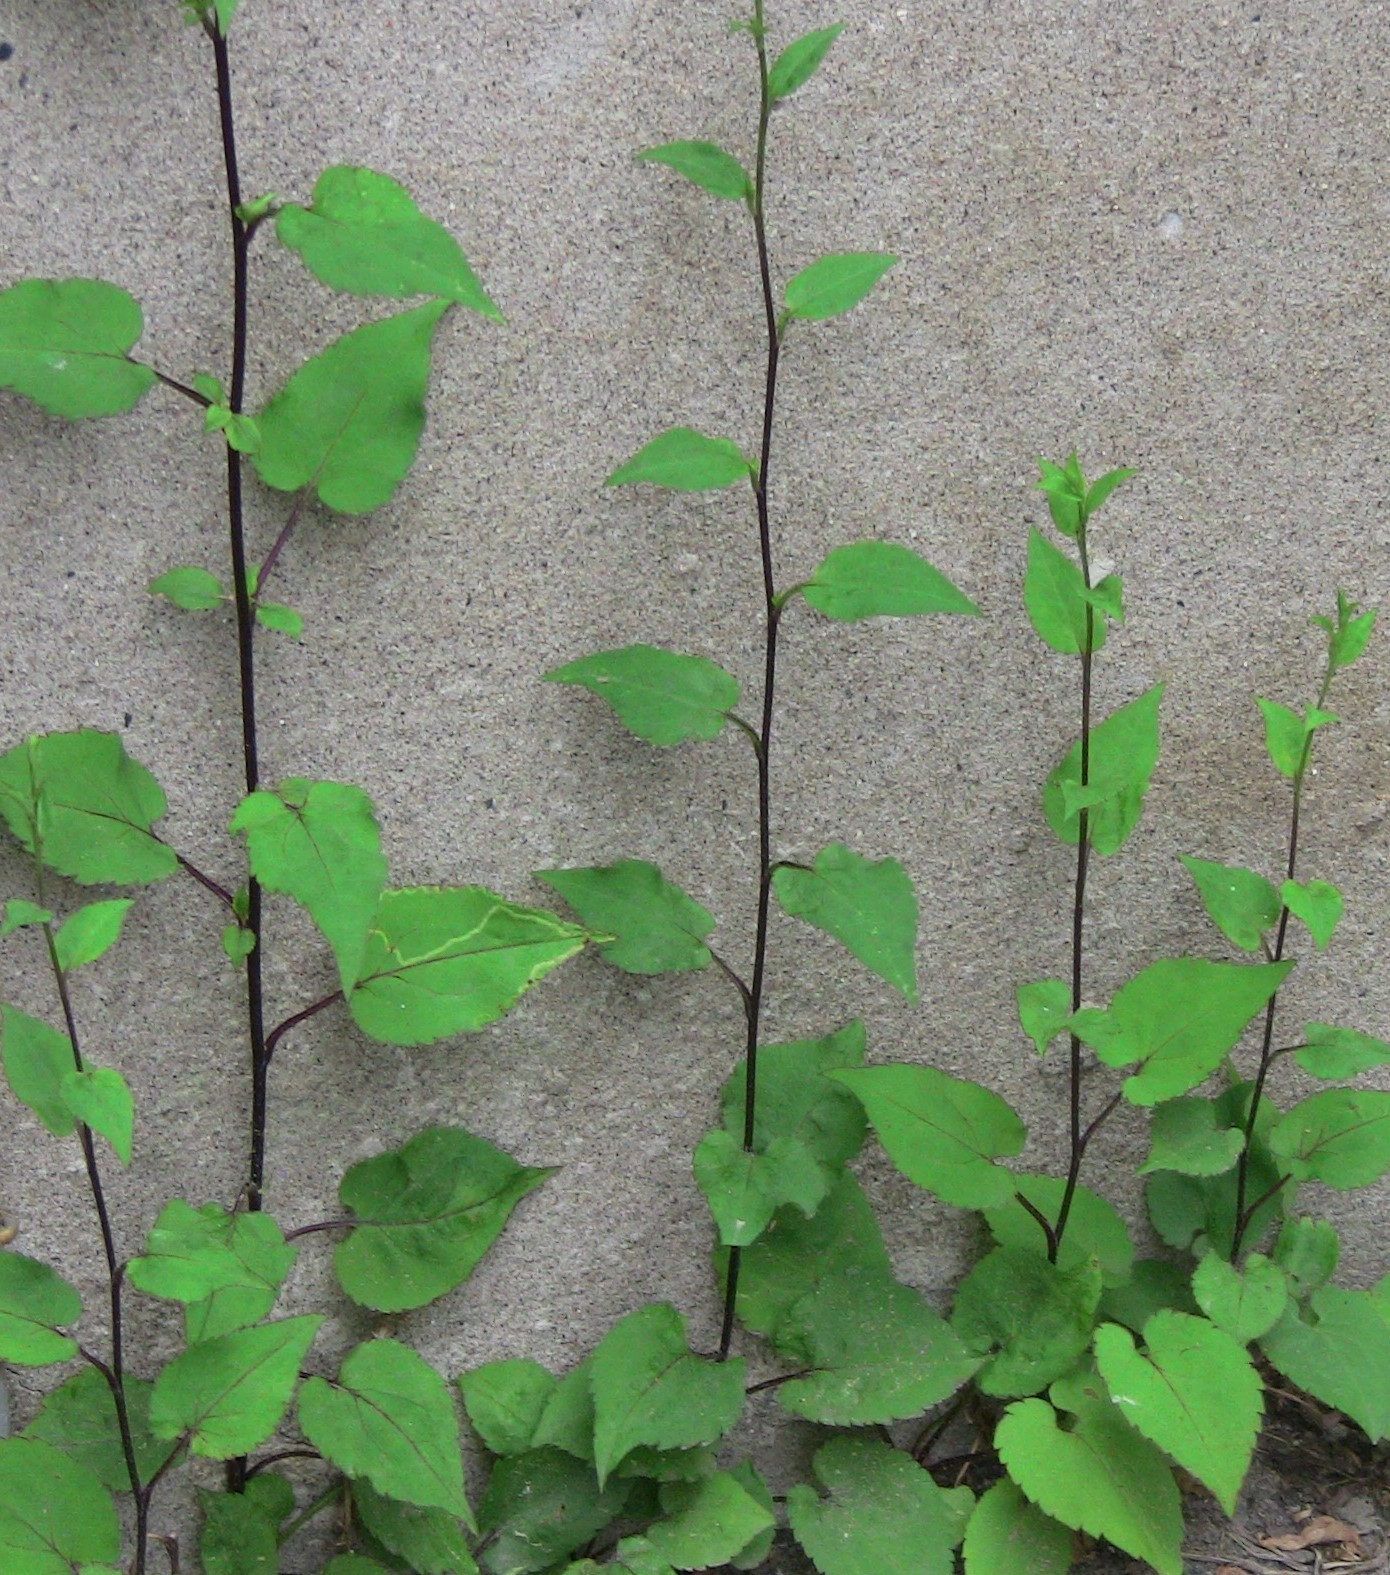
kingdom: Plantae
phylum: Tracheophyta
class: Magnoliopsida
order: Asterales
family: Asteraceae
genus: Symphyotrichum
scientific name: Symphyotrichum cordifolium
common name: Beeweed
